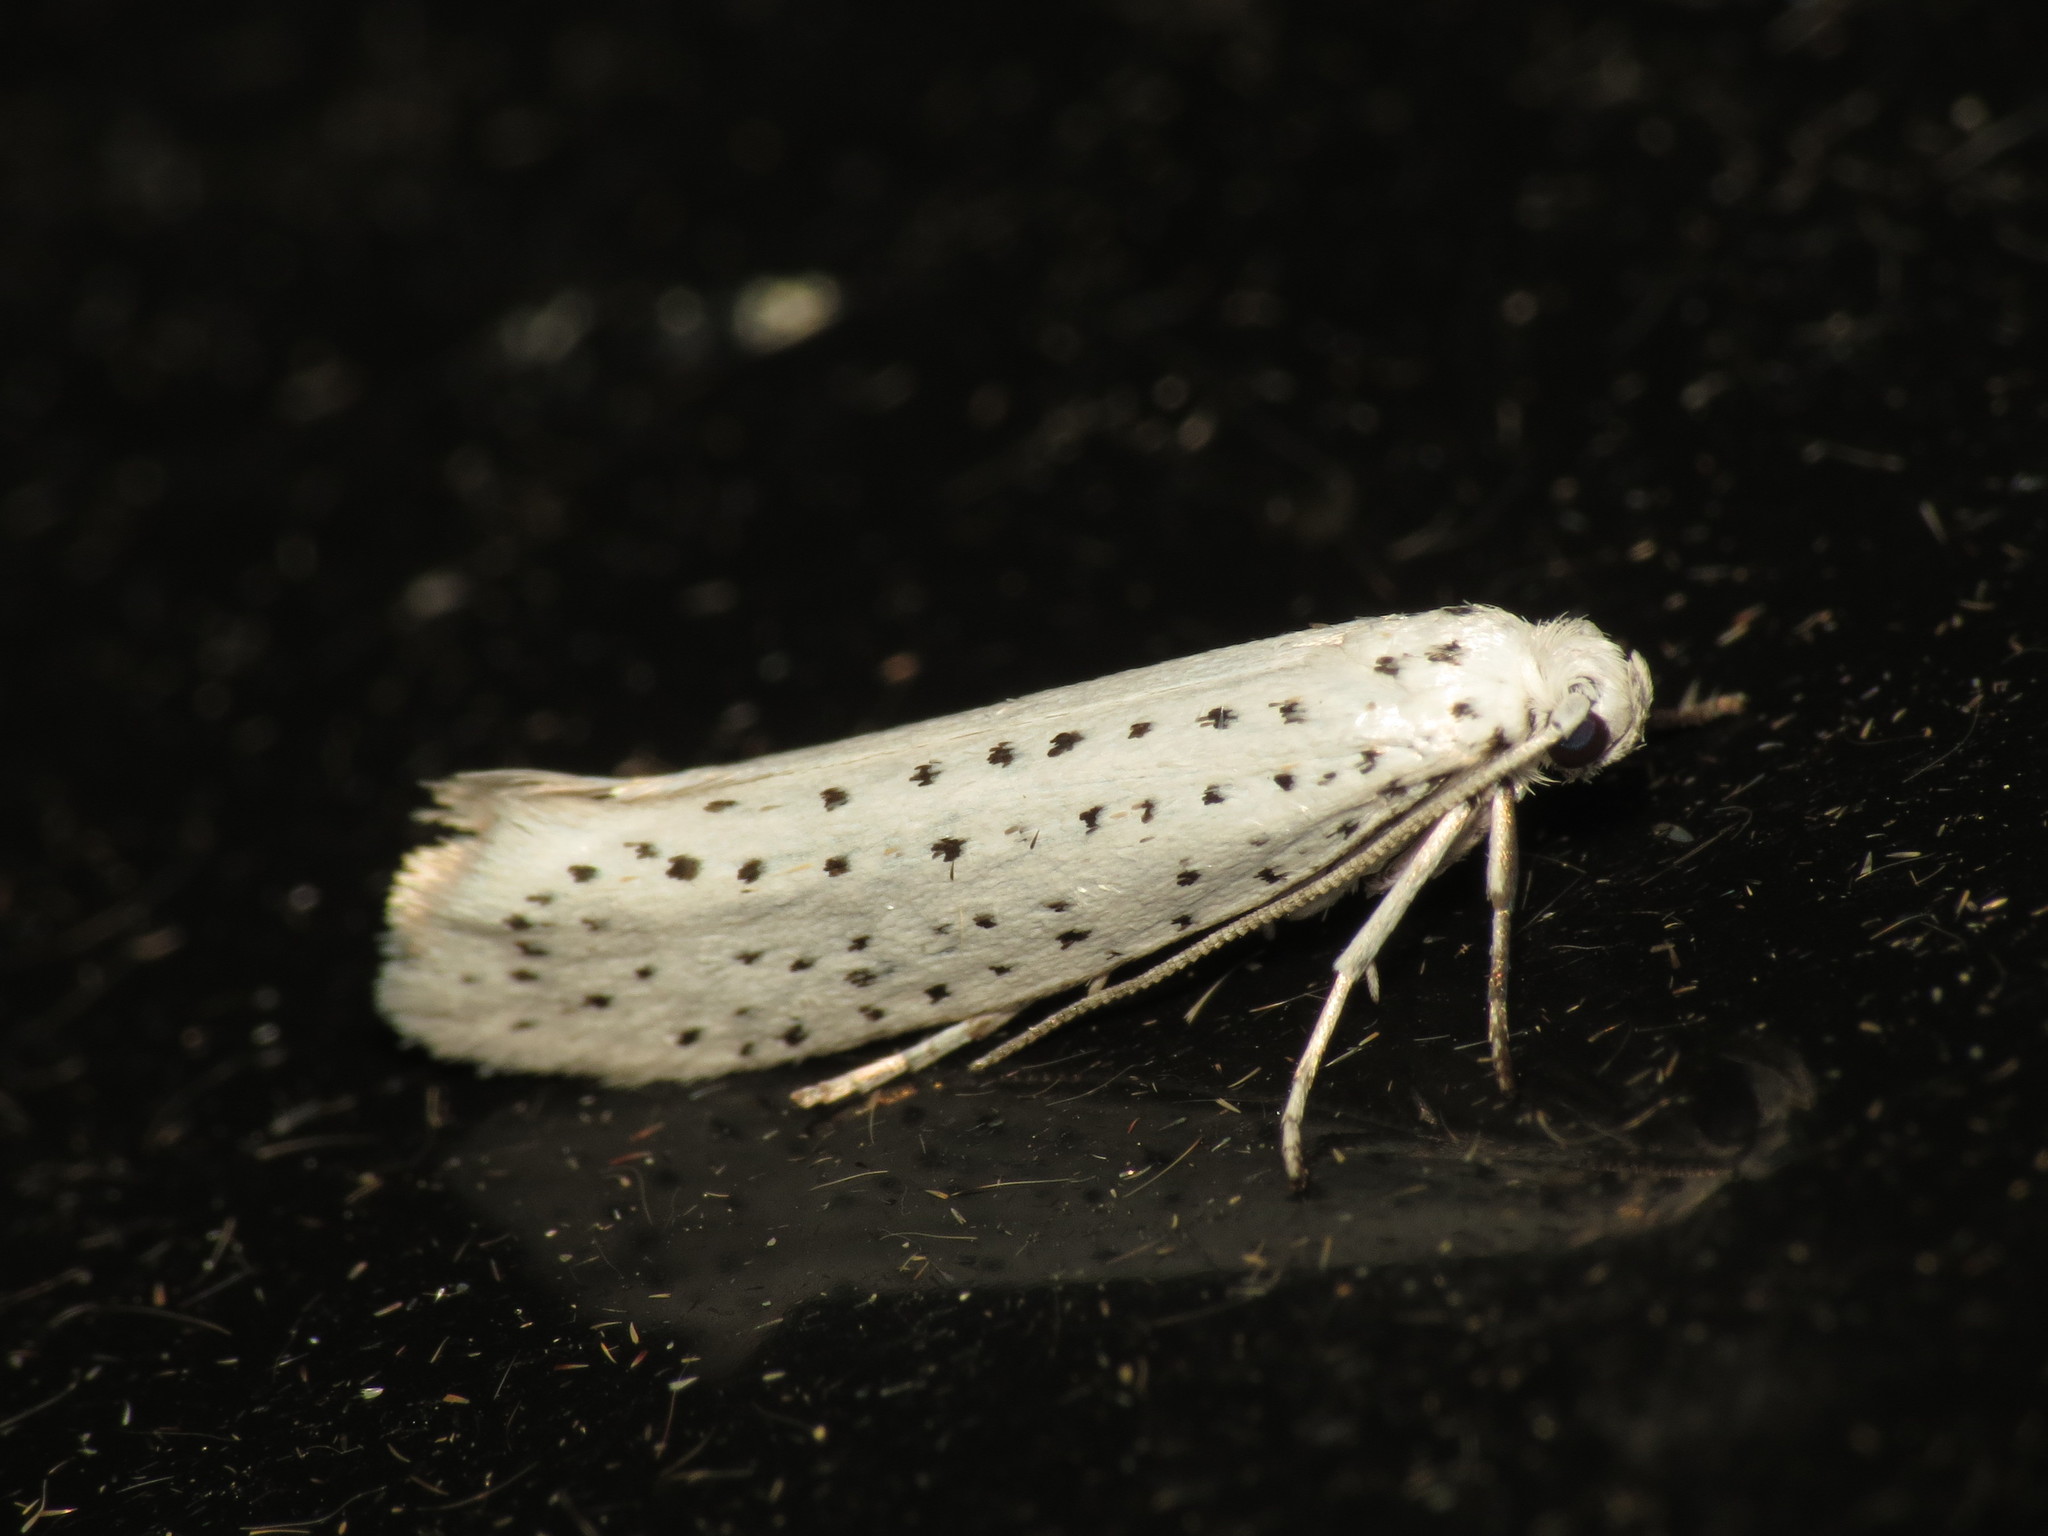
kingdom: Animalia
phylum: Arthropoda
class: Insecta
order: Lepidoptera
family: Yponomeutidae
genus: Yponomeuta
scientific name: Yponomeuta evonymella
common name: Bird-cherry ermine
